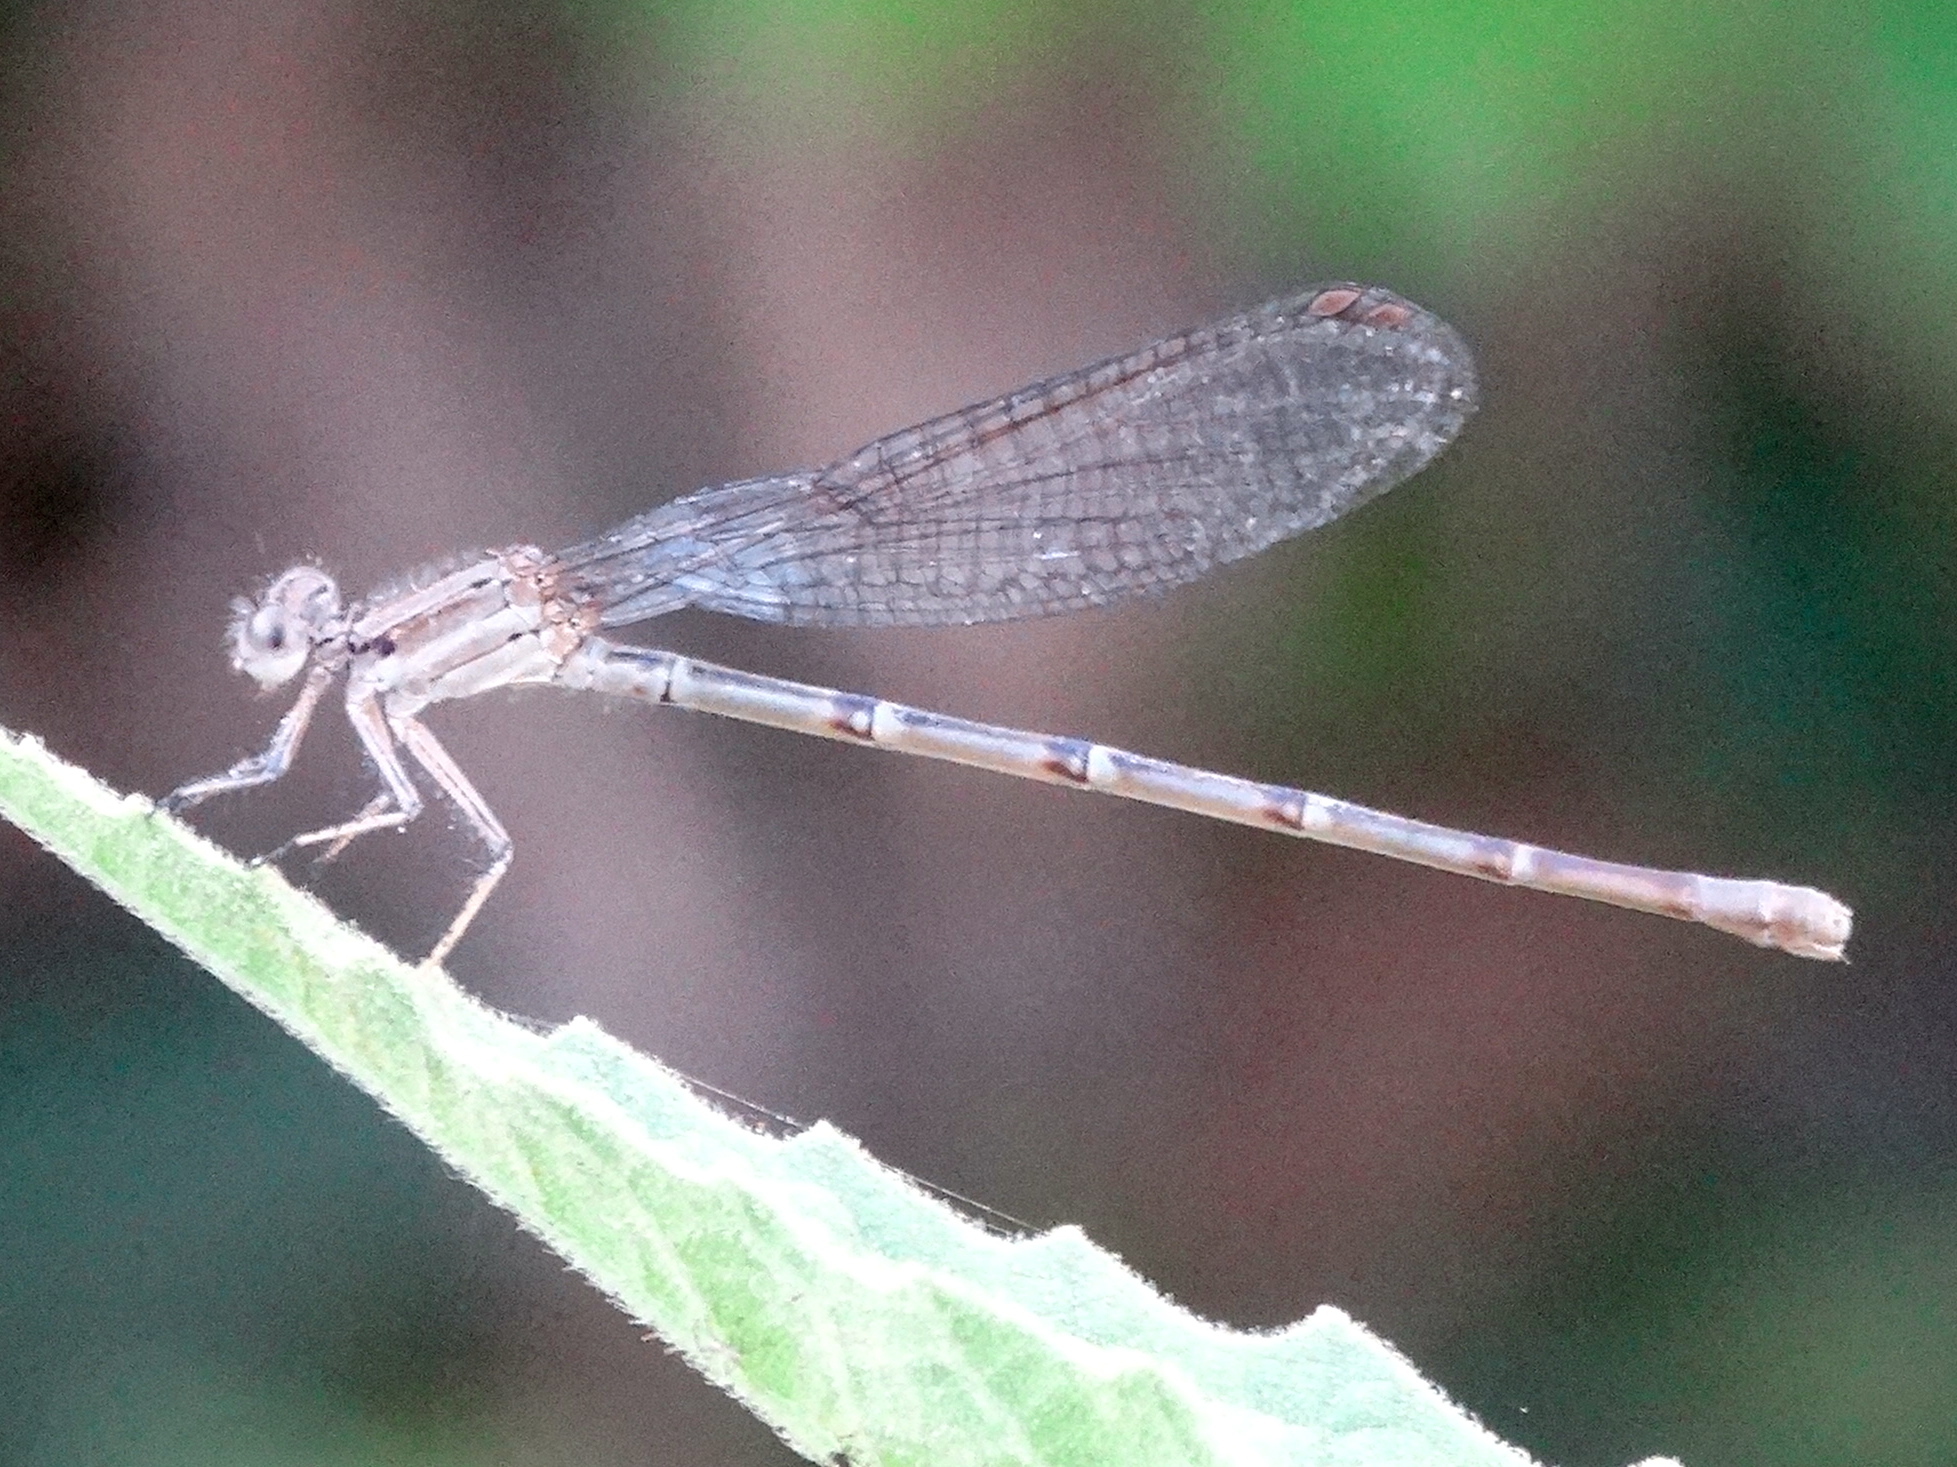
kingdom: Animalia
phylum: Arthropoda
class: Insecta
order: Odonata
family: Coenagrionidae
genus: Argia
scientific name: Argia
